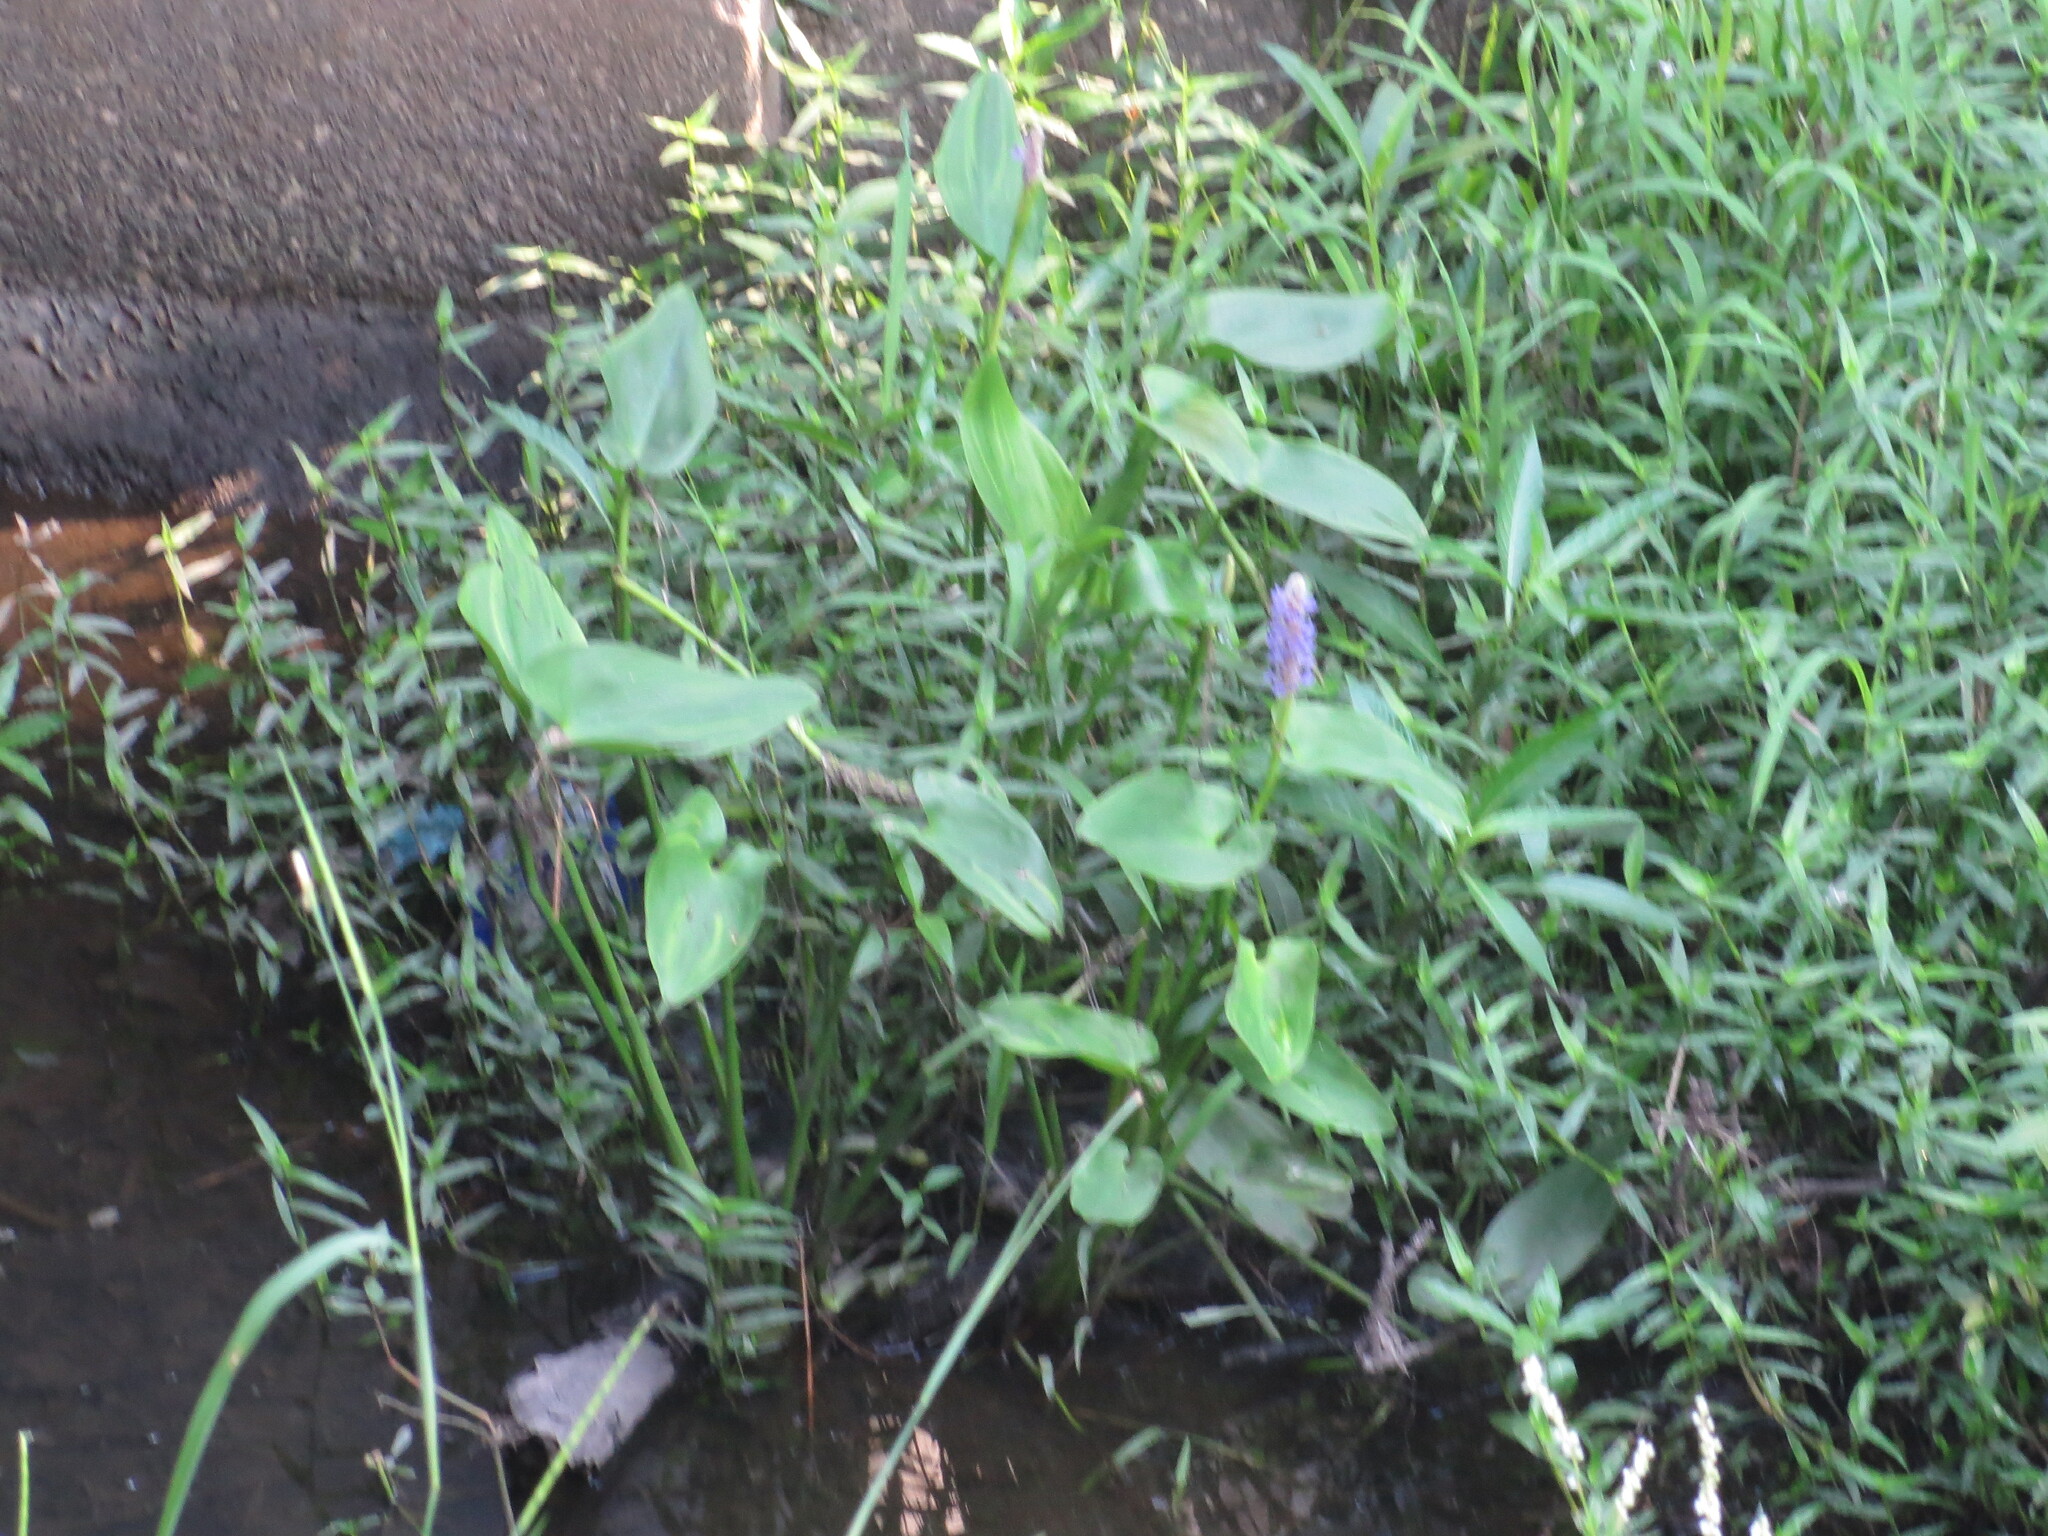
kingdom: Plantae
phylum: Tracheophyta
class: Liliopsida
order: Commelinales
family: Pontederiaceae
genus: Pontederia
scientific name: Pontederia cordata
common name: Pickerelweed
